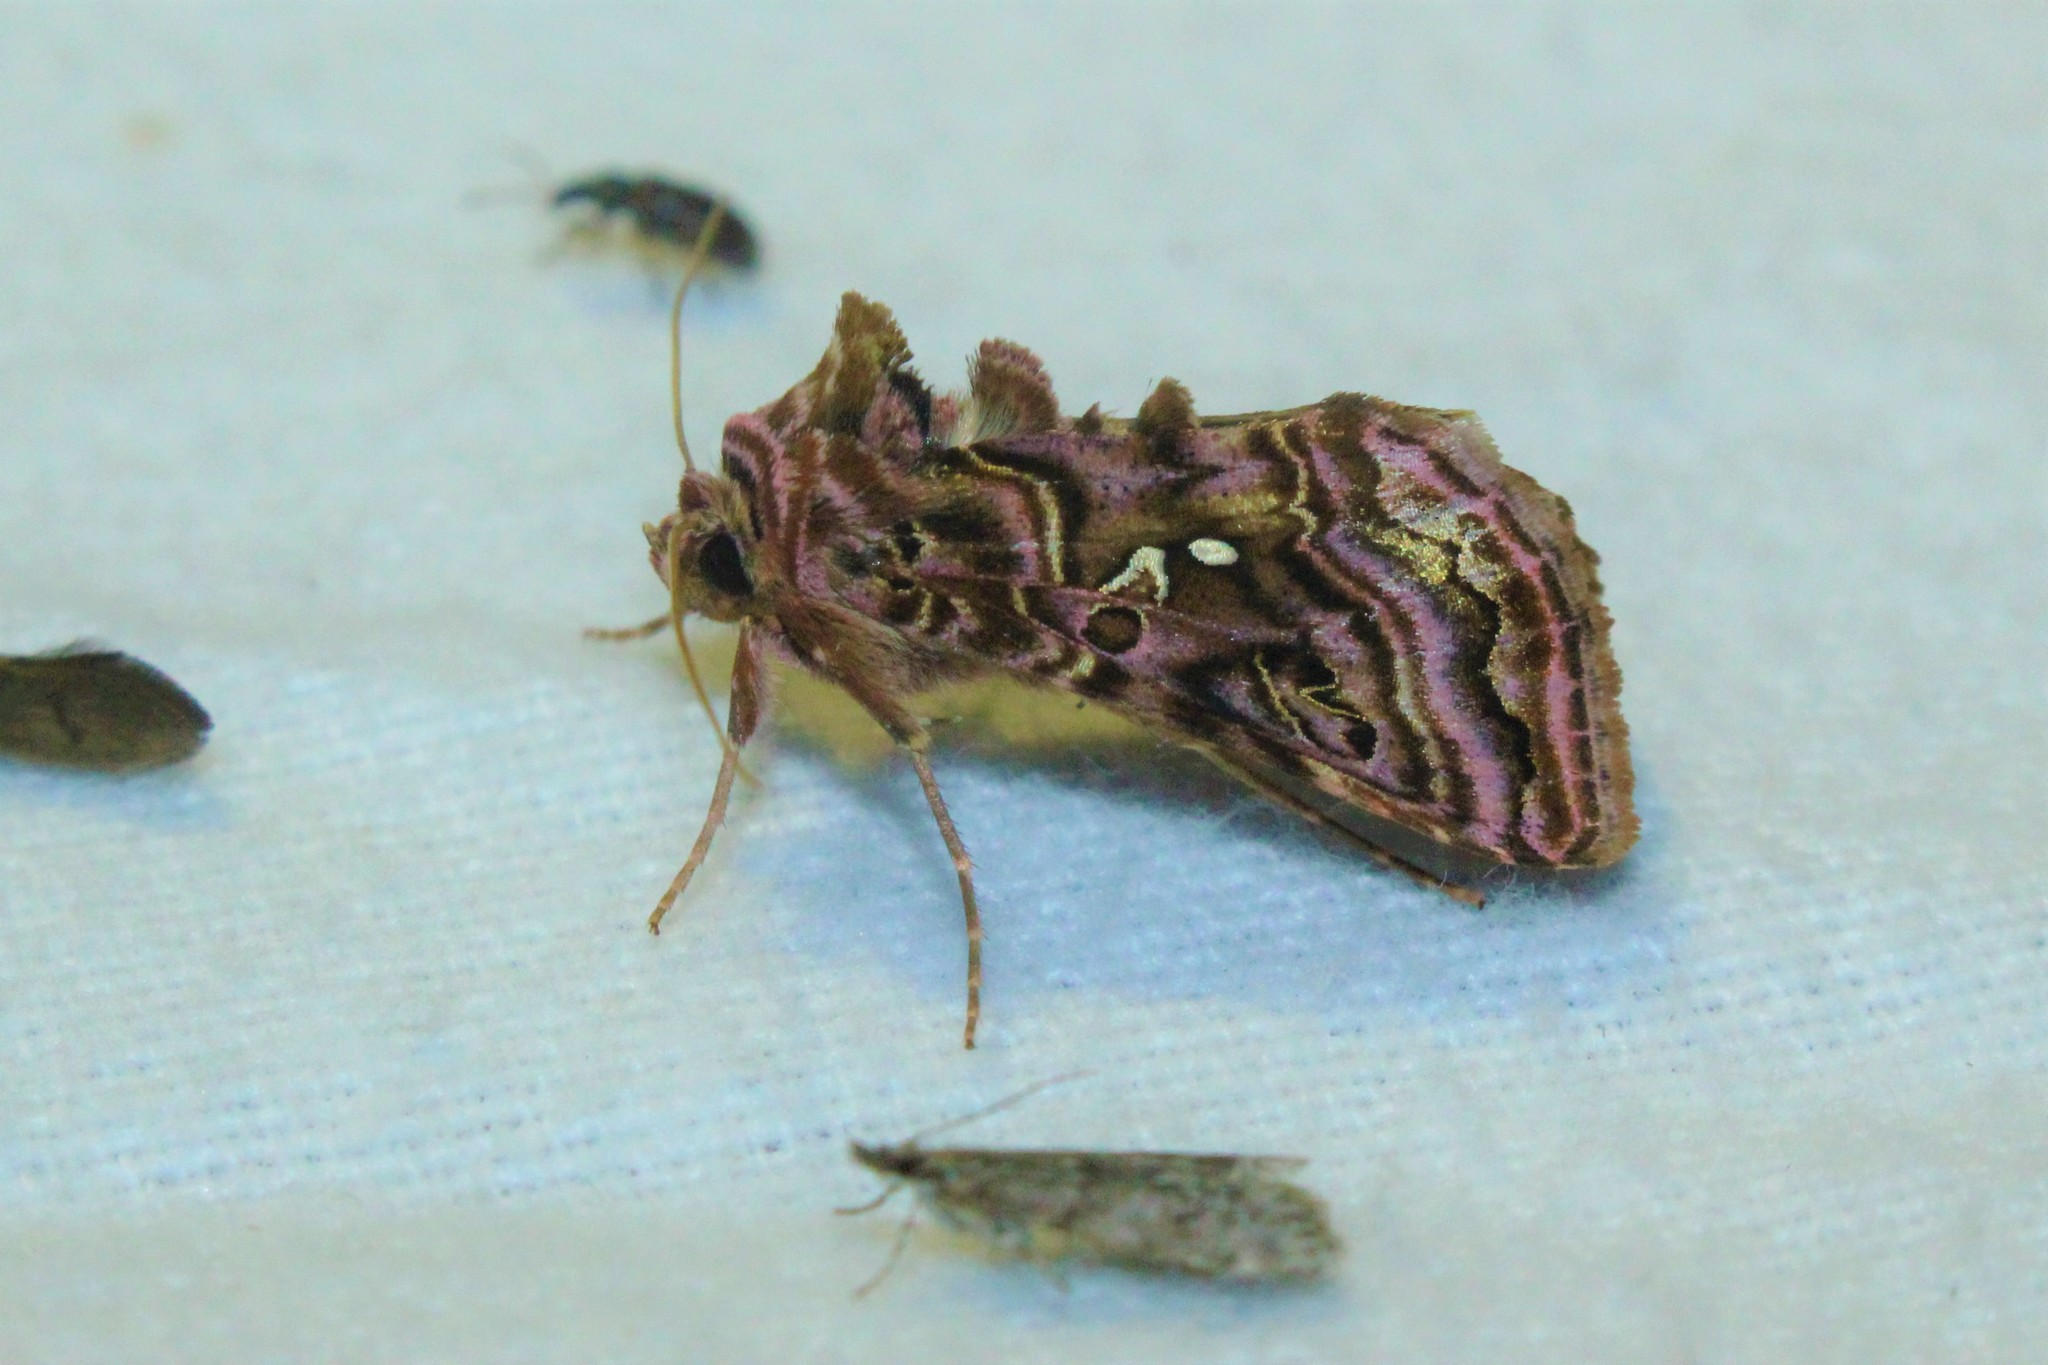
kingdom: Animalia
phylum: Arthropoda
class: Insecta
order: Lepidoptera
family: Noctuidae
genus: Autographa
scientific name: Autographa mappa
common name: Wavy chestnut y moth
